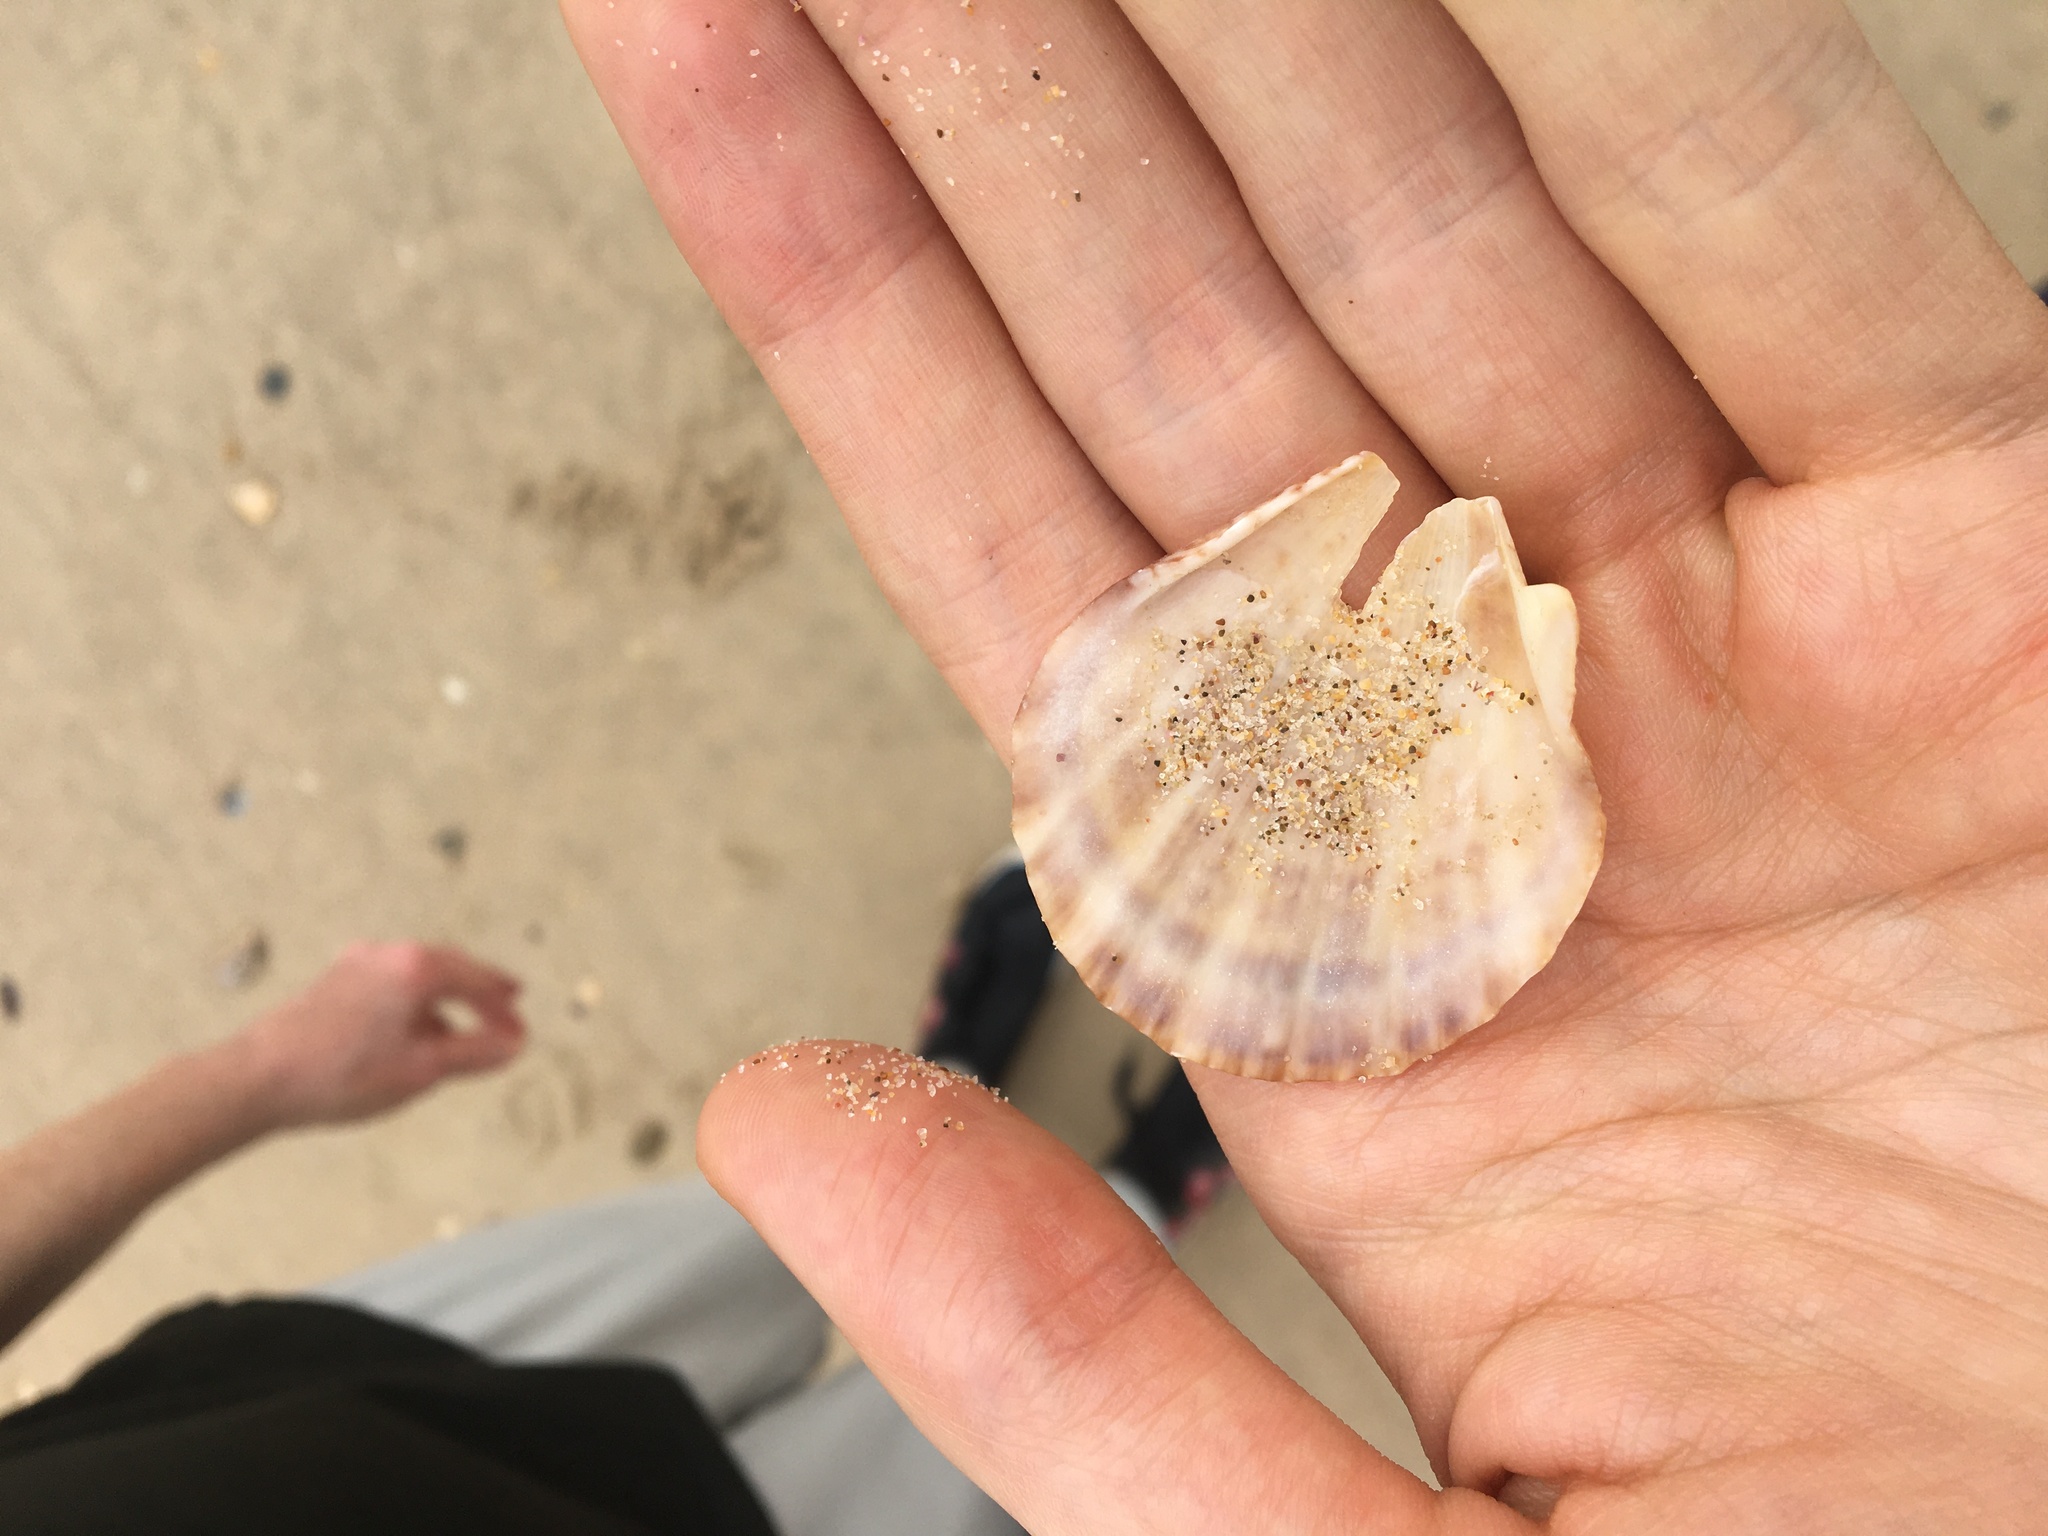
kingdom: Animalia
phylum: Mollusca
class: Bivalvia
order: Pectinida
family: Pectinidae
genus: Scaeochlamys
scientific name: Scaeochlamys livida
